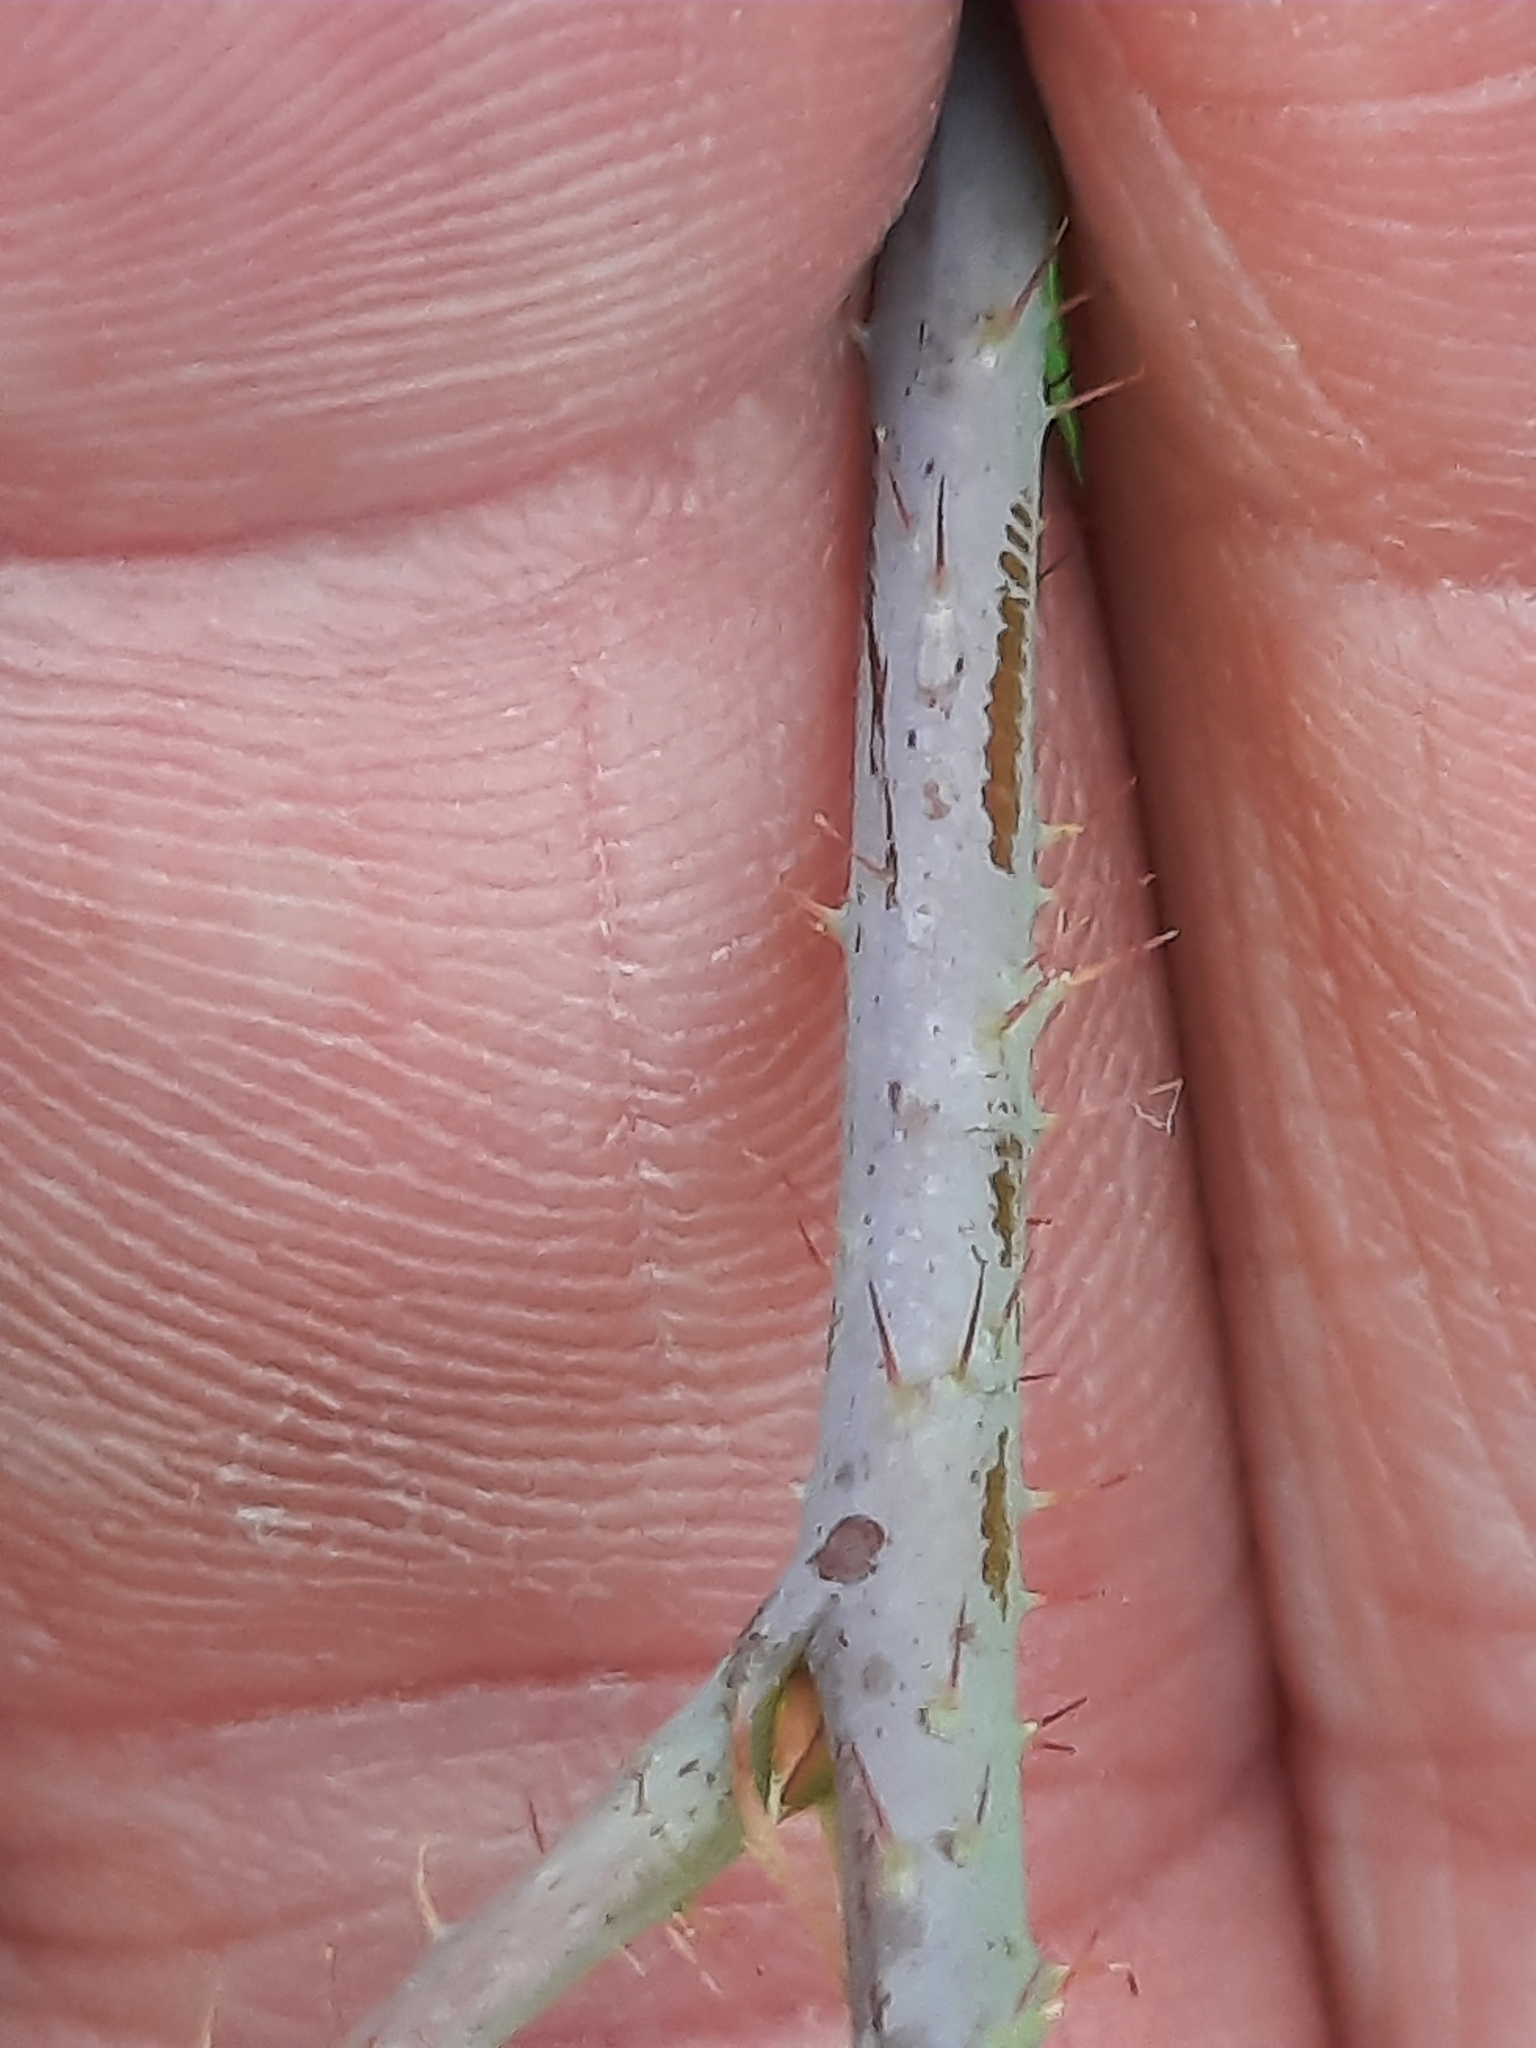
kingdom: Plantae
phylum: Tracheophyta
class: Magnoliopsida
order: Rosales
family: Rosaceae
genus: Rubus
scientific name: Rubus occidentalis
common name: Black raspberry
